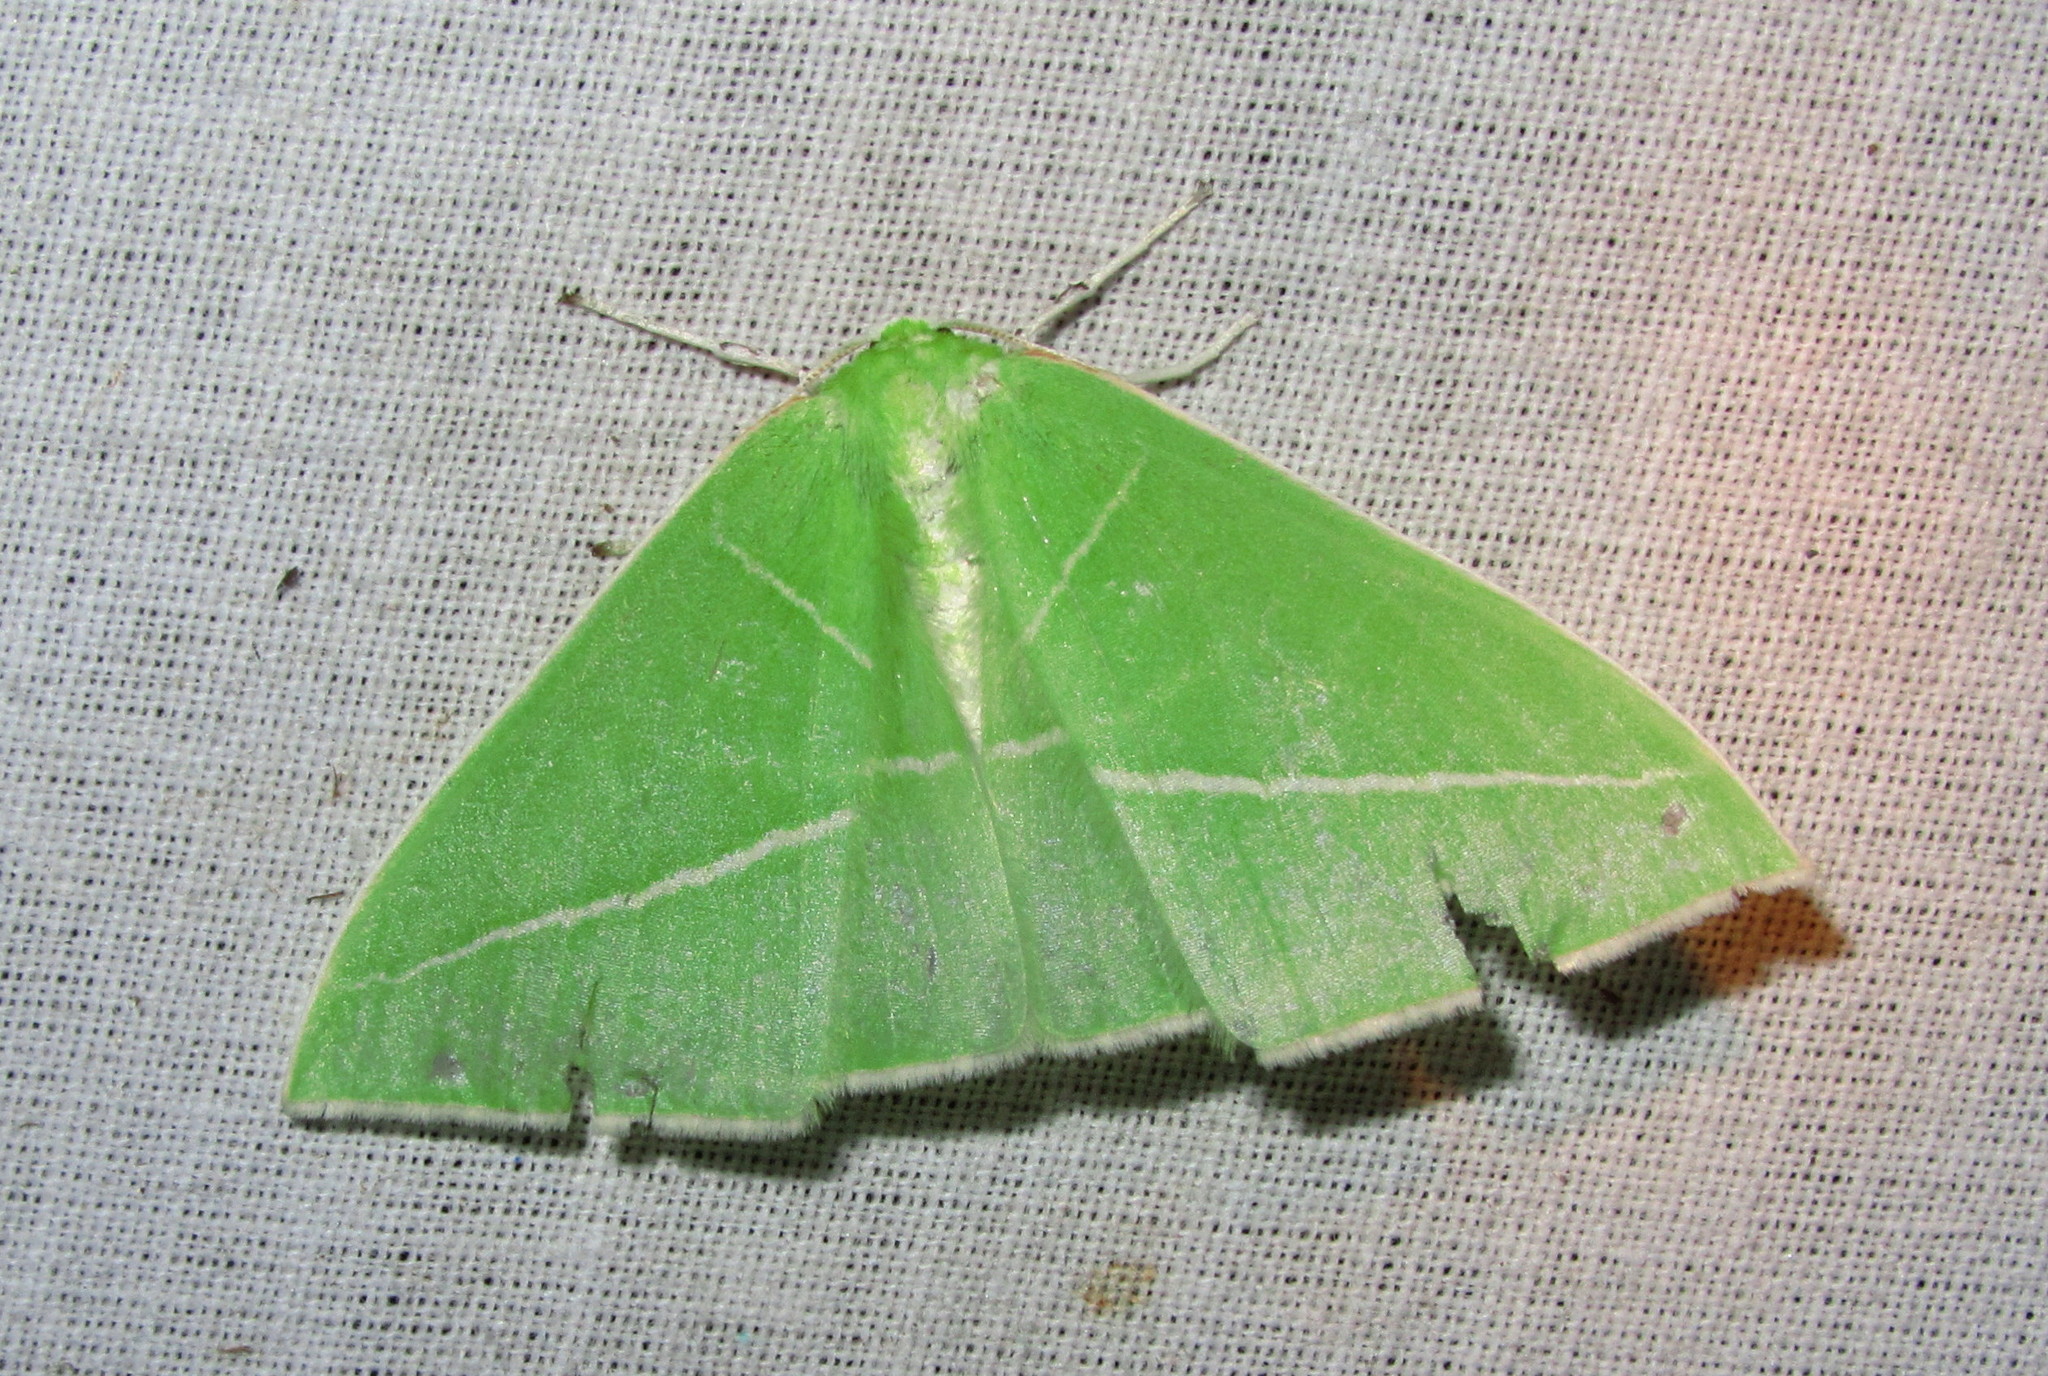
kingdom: Animalia
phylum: Arthropoda
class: Insecta
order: Lepidoptera
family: Geometridae
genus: Tanaoctenia
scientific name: Tanaoctenia haliaria
